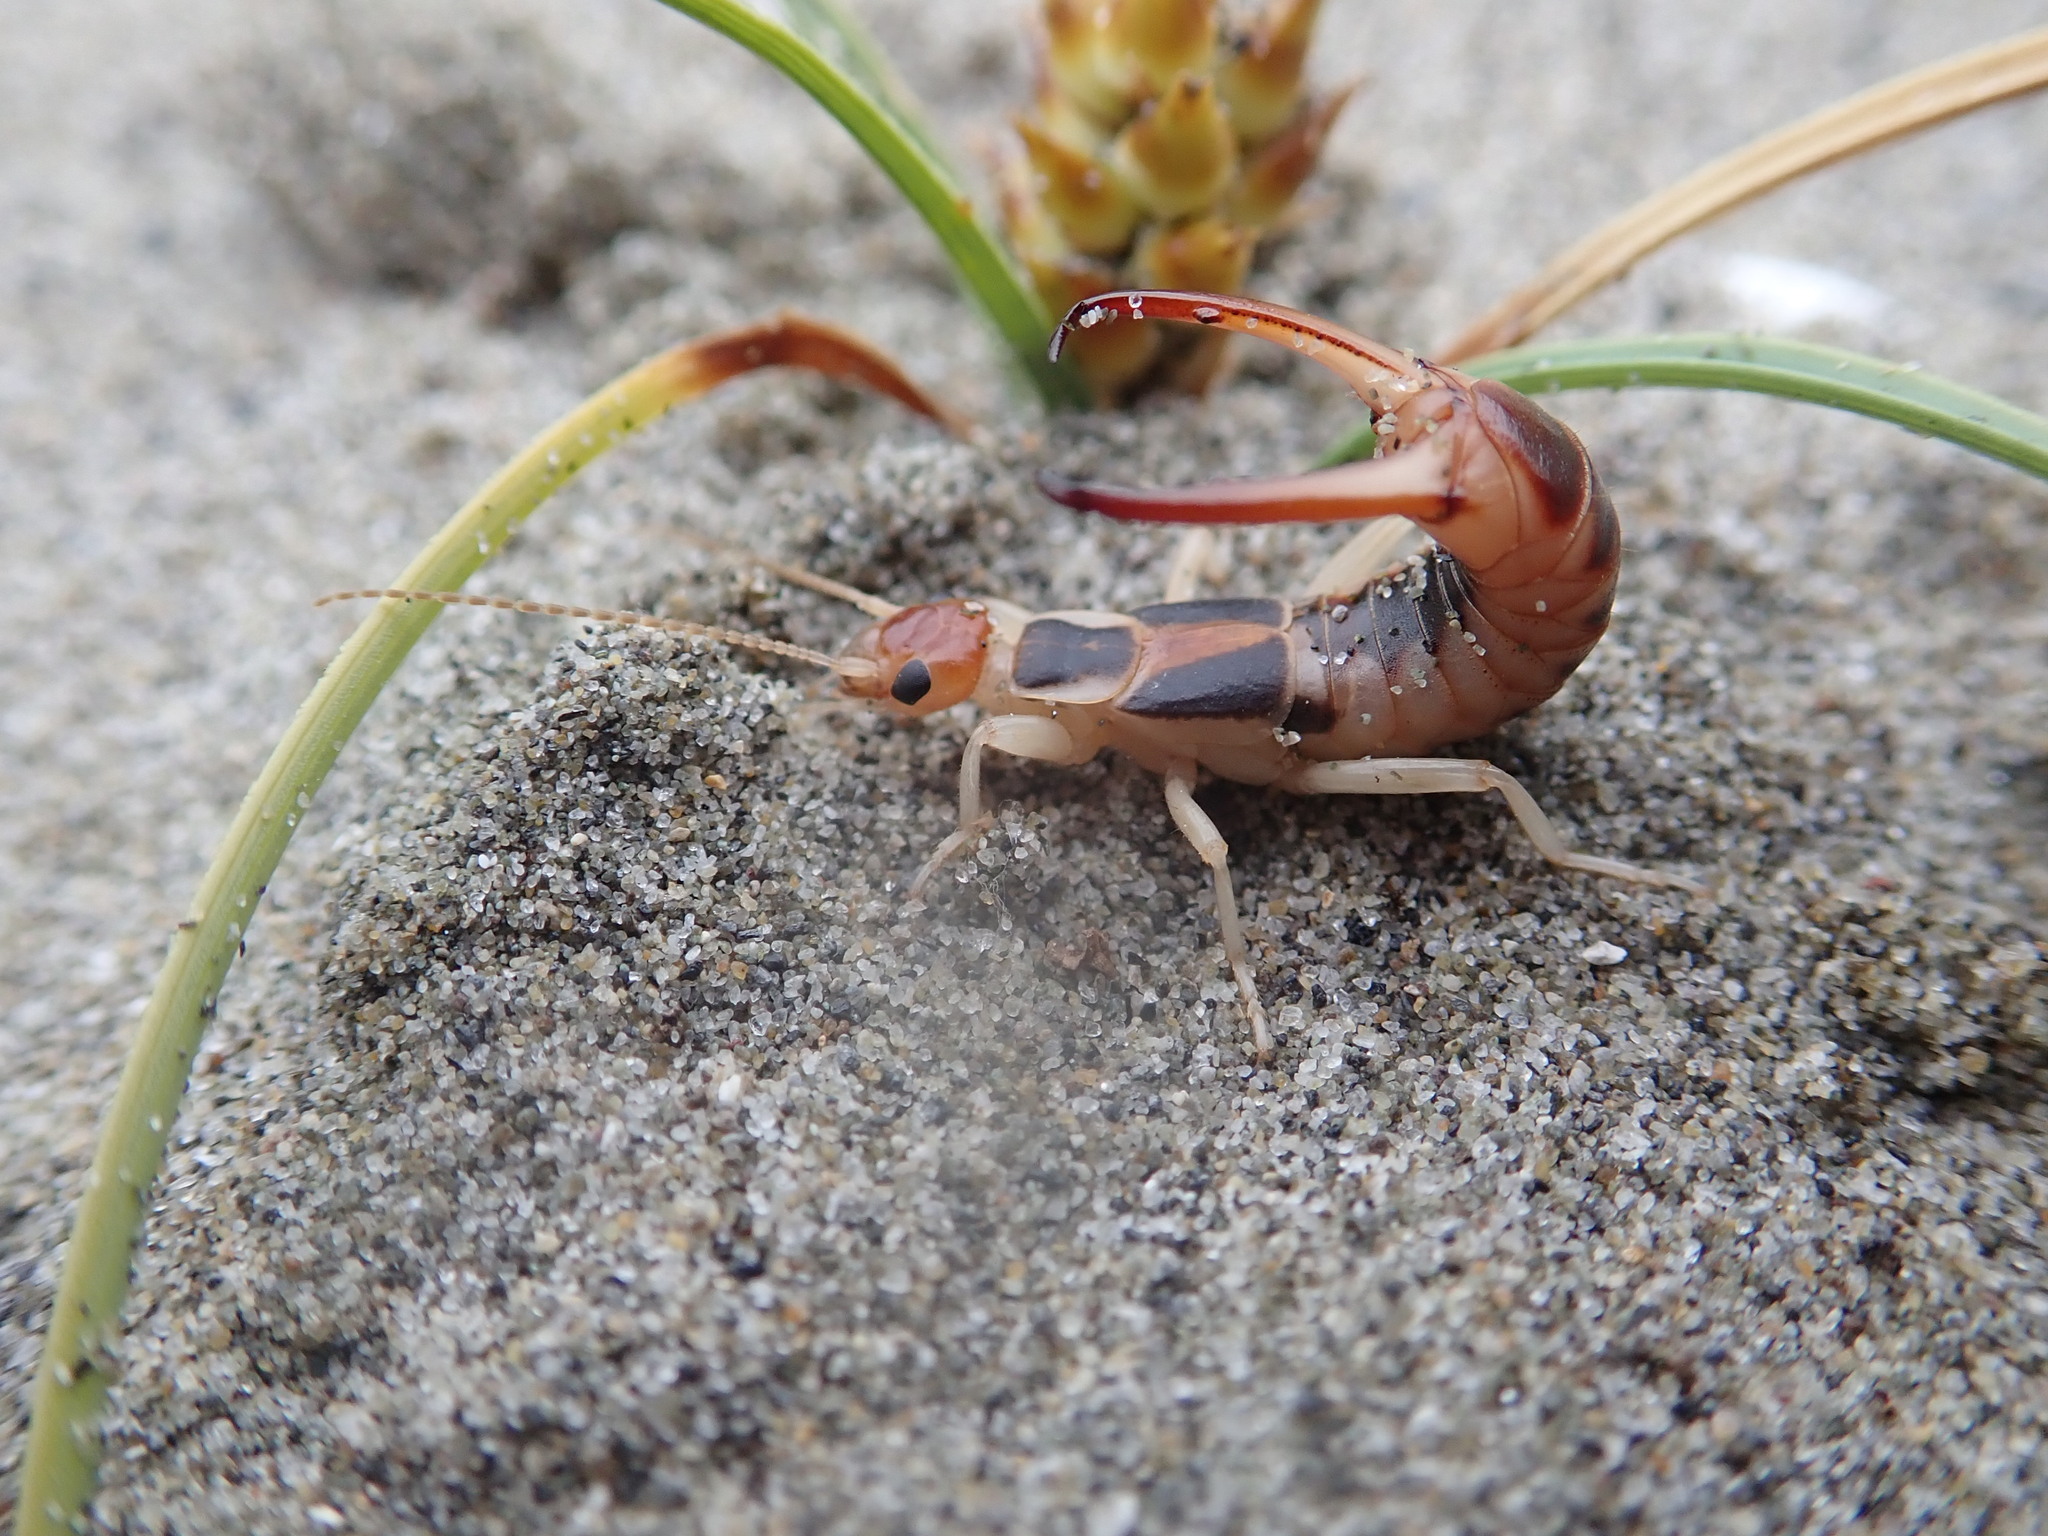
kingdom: Animalia
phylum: Arthropoda
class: Insecta
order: Dermaptera
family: Labiduridae
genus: Labidura
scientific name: Labidura riparia
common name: Striped earwig
